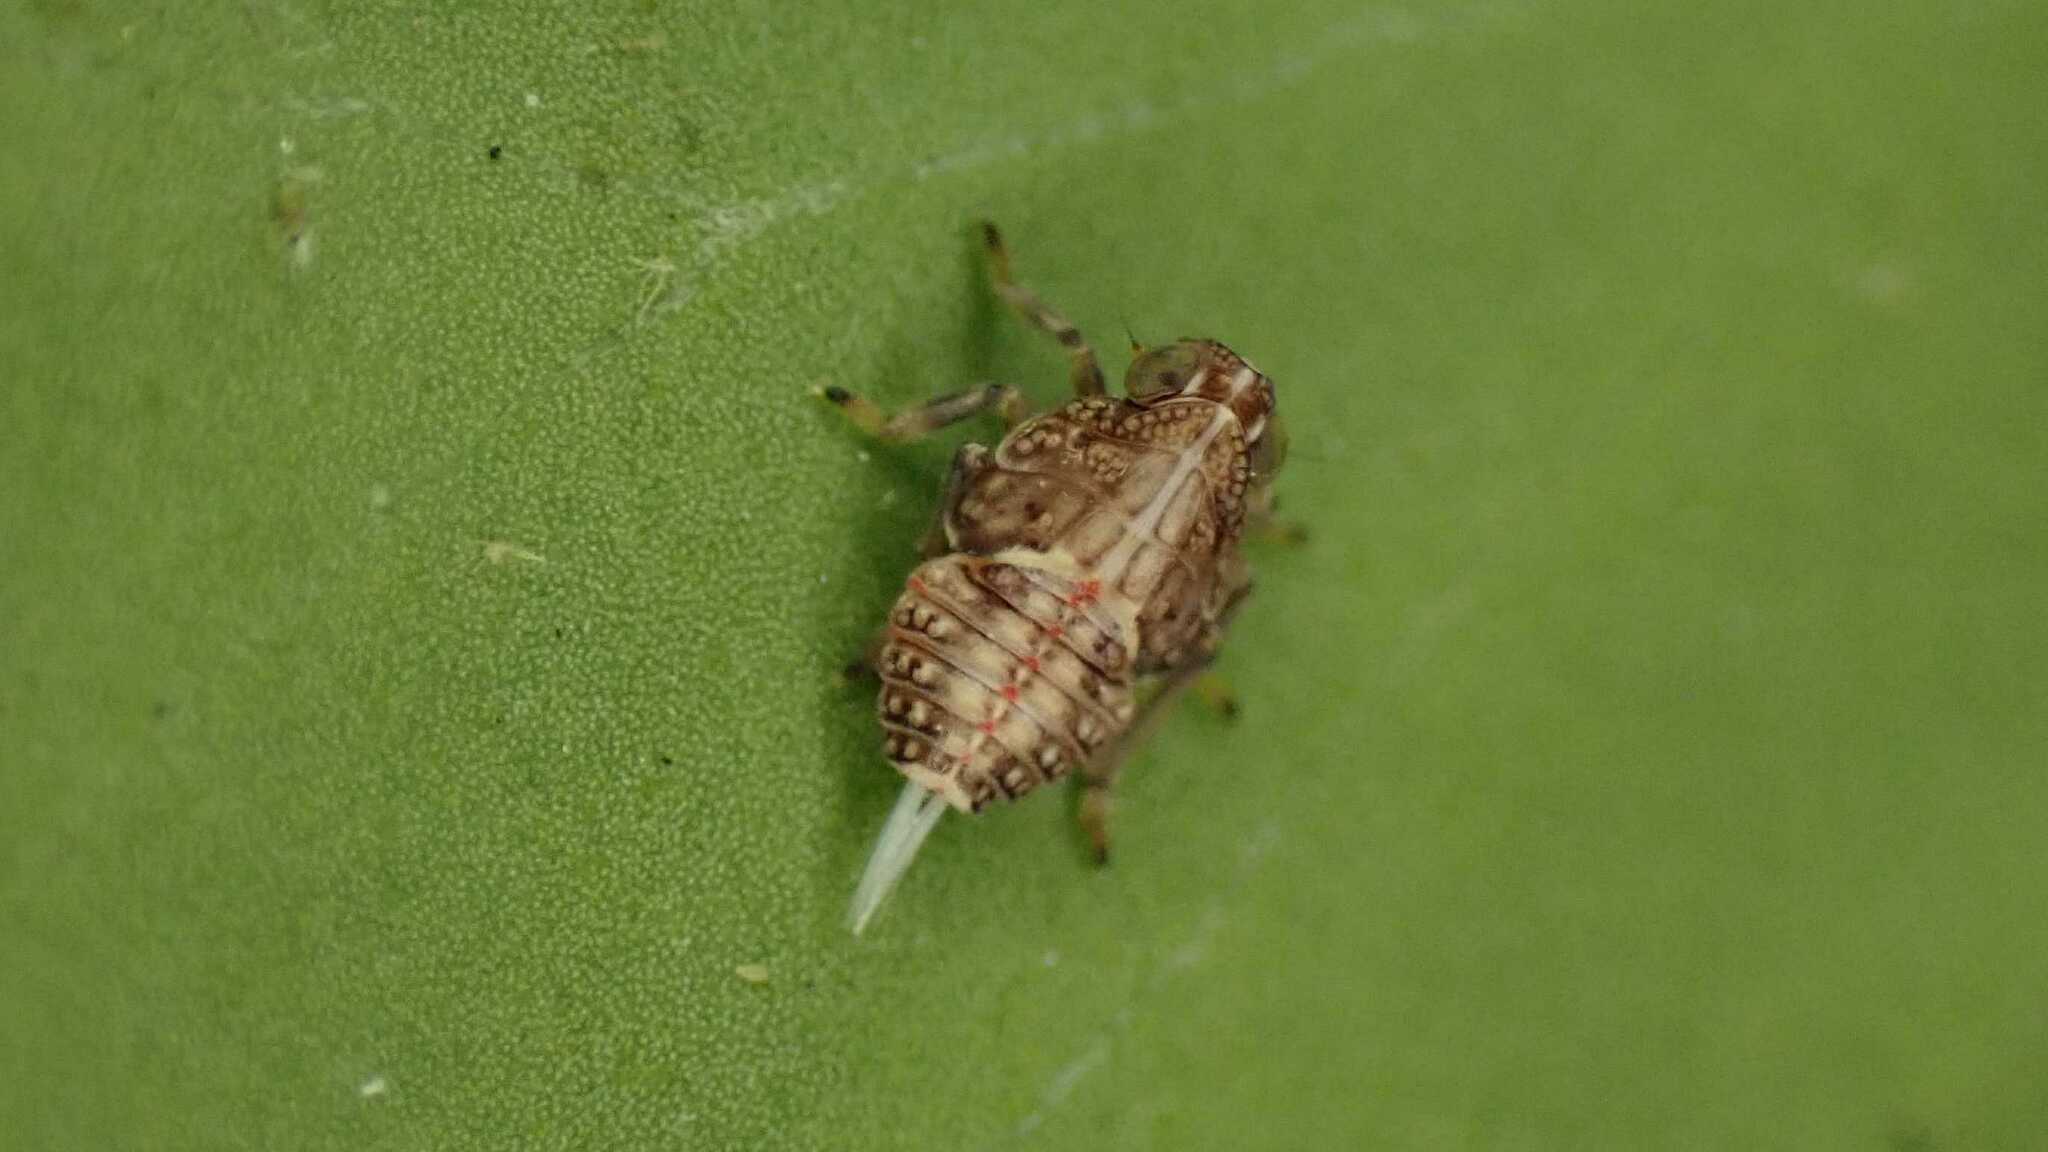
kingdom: Animalia
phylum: Arthropoda
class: Insecta
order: Hemiptera
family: Issidae
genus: Issus
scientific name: Issus
